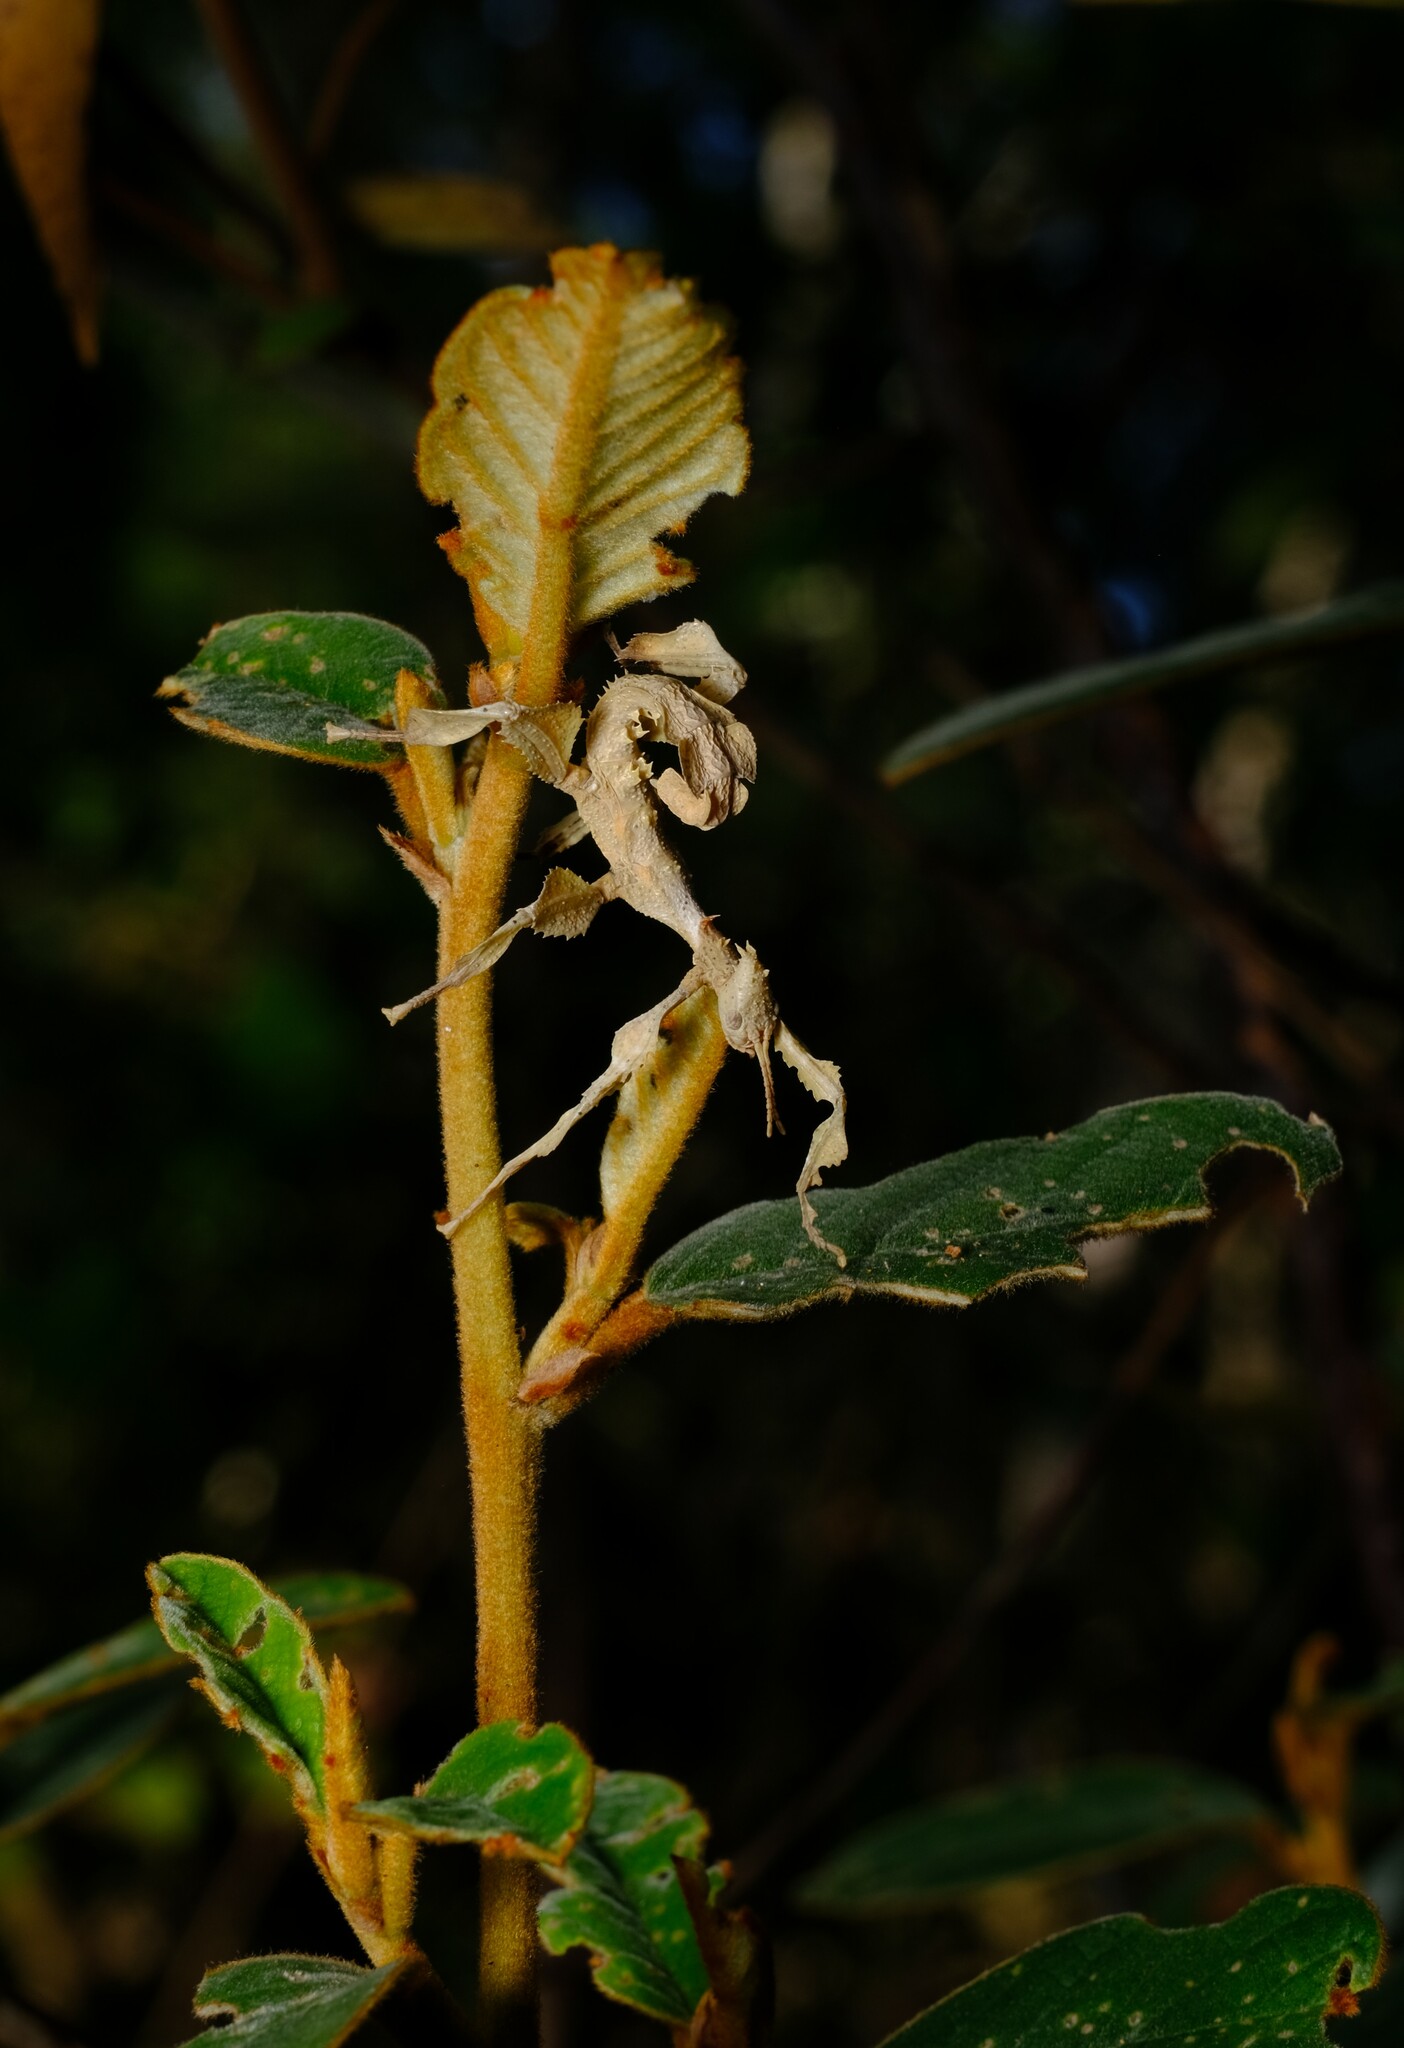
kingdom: Animalia
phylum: Arthropoda
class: Insecta
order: Phasmida
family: Phasmatidae
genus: Extatosoma
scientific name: Extatosoma tiaratum
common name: Macleay's spectre
